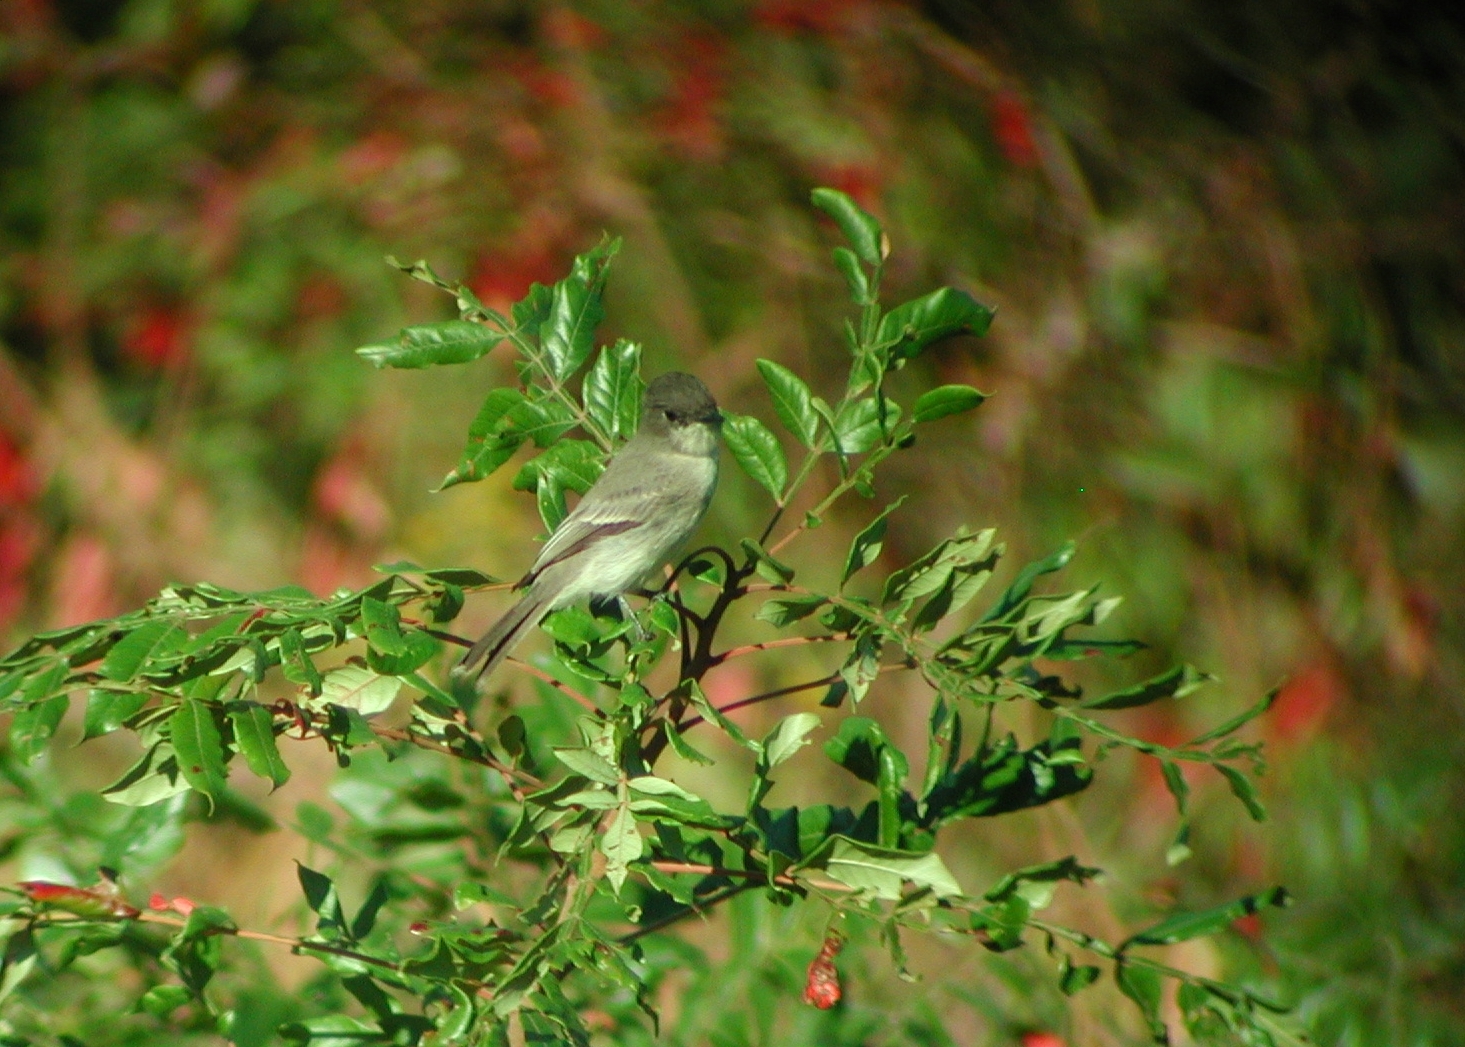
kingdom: Animalia
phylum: Chordata
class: Aves
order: Passeriformes
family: Tyrannidae
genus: Sayornis
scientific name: Sayornis phoebe
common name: Eastern phoebe
